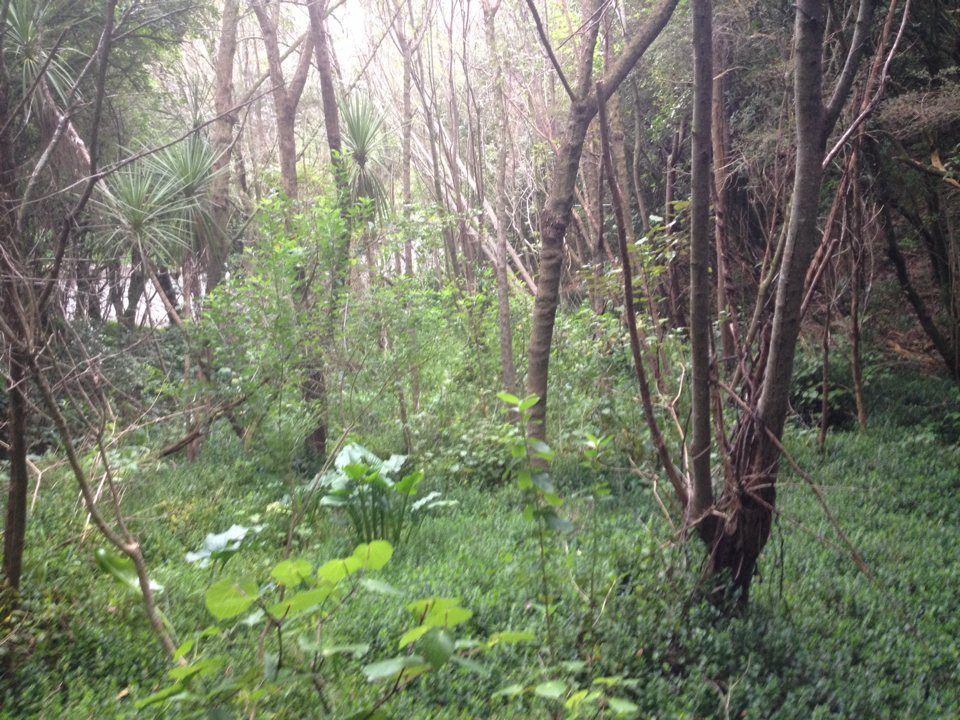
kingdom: Plantae
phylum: Tracheophyta
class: Liliopsida
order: Alismatales
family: Araceae
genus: Zantedeschia
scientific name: Zantedeschia aethiopica
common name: Altar-lily
